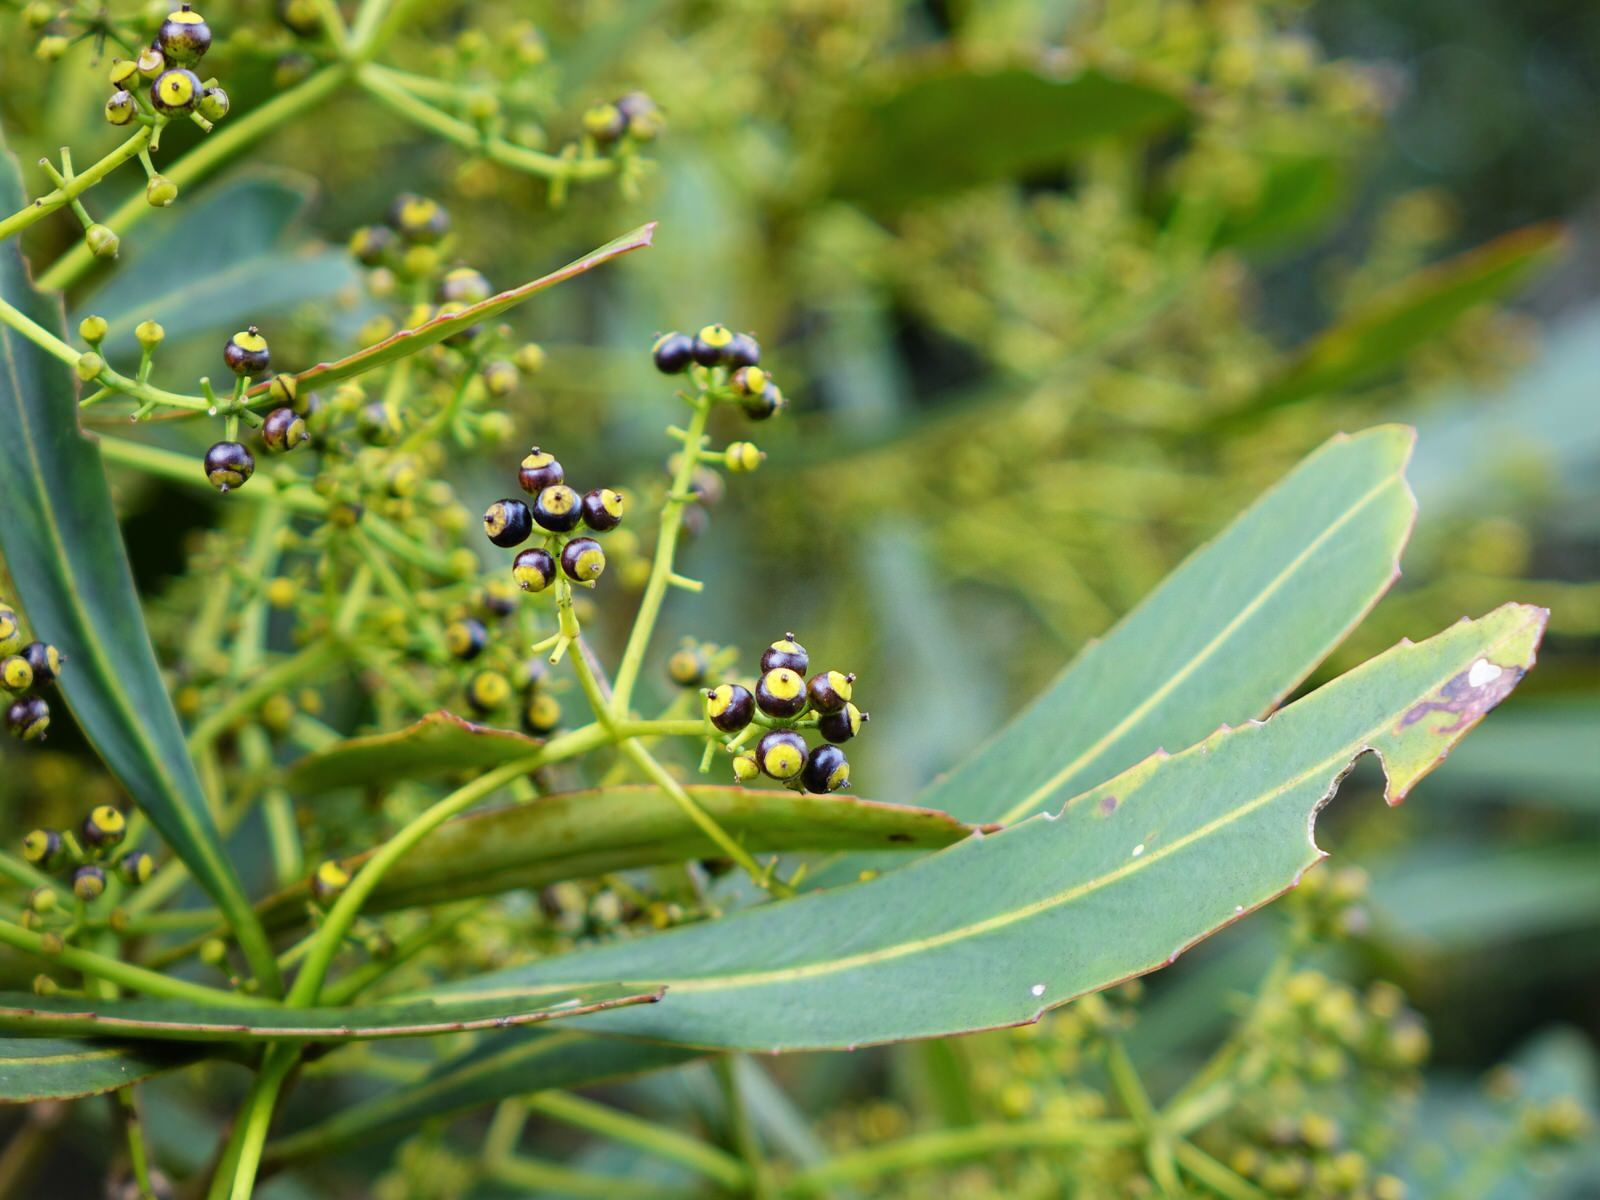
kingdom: Plantae
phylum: Tracheophyta
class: Magnoliopsida
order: Apiales
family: Araliaceae
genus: Pseudopanax
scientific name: Pseudopanax crassifolius
